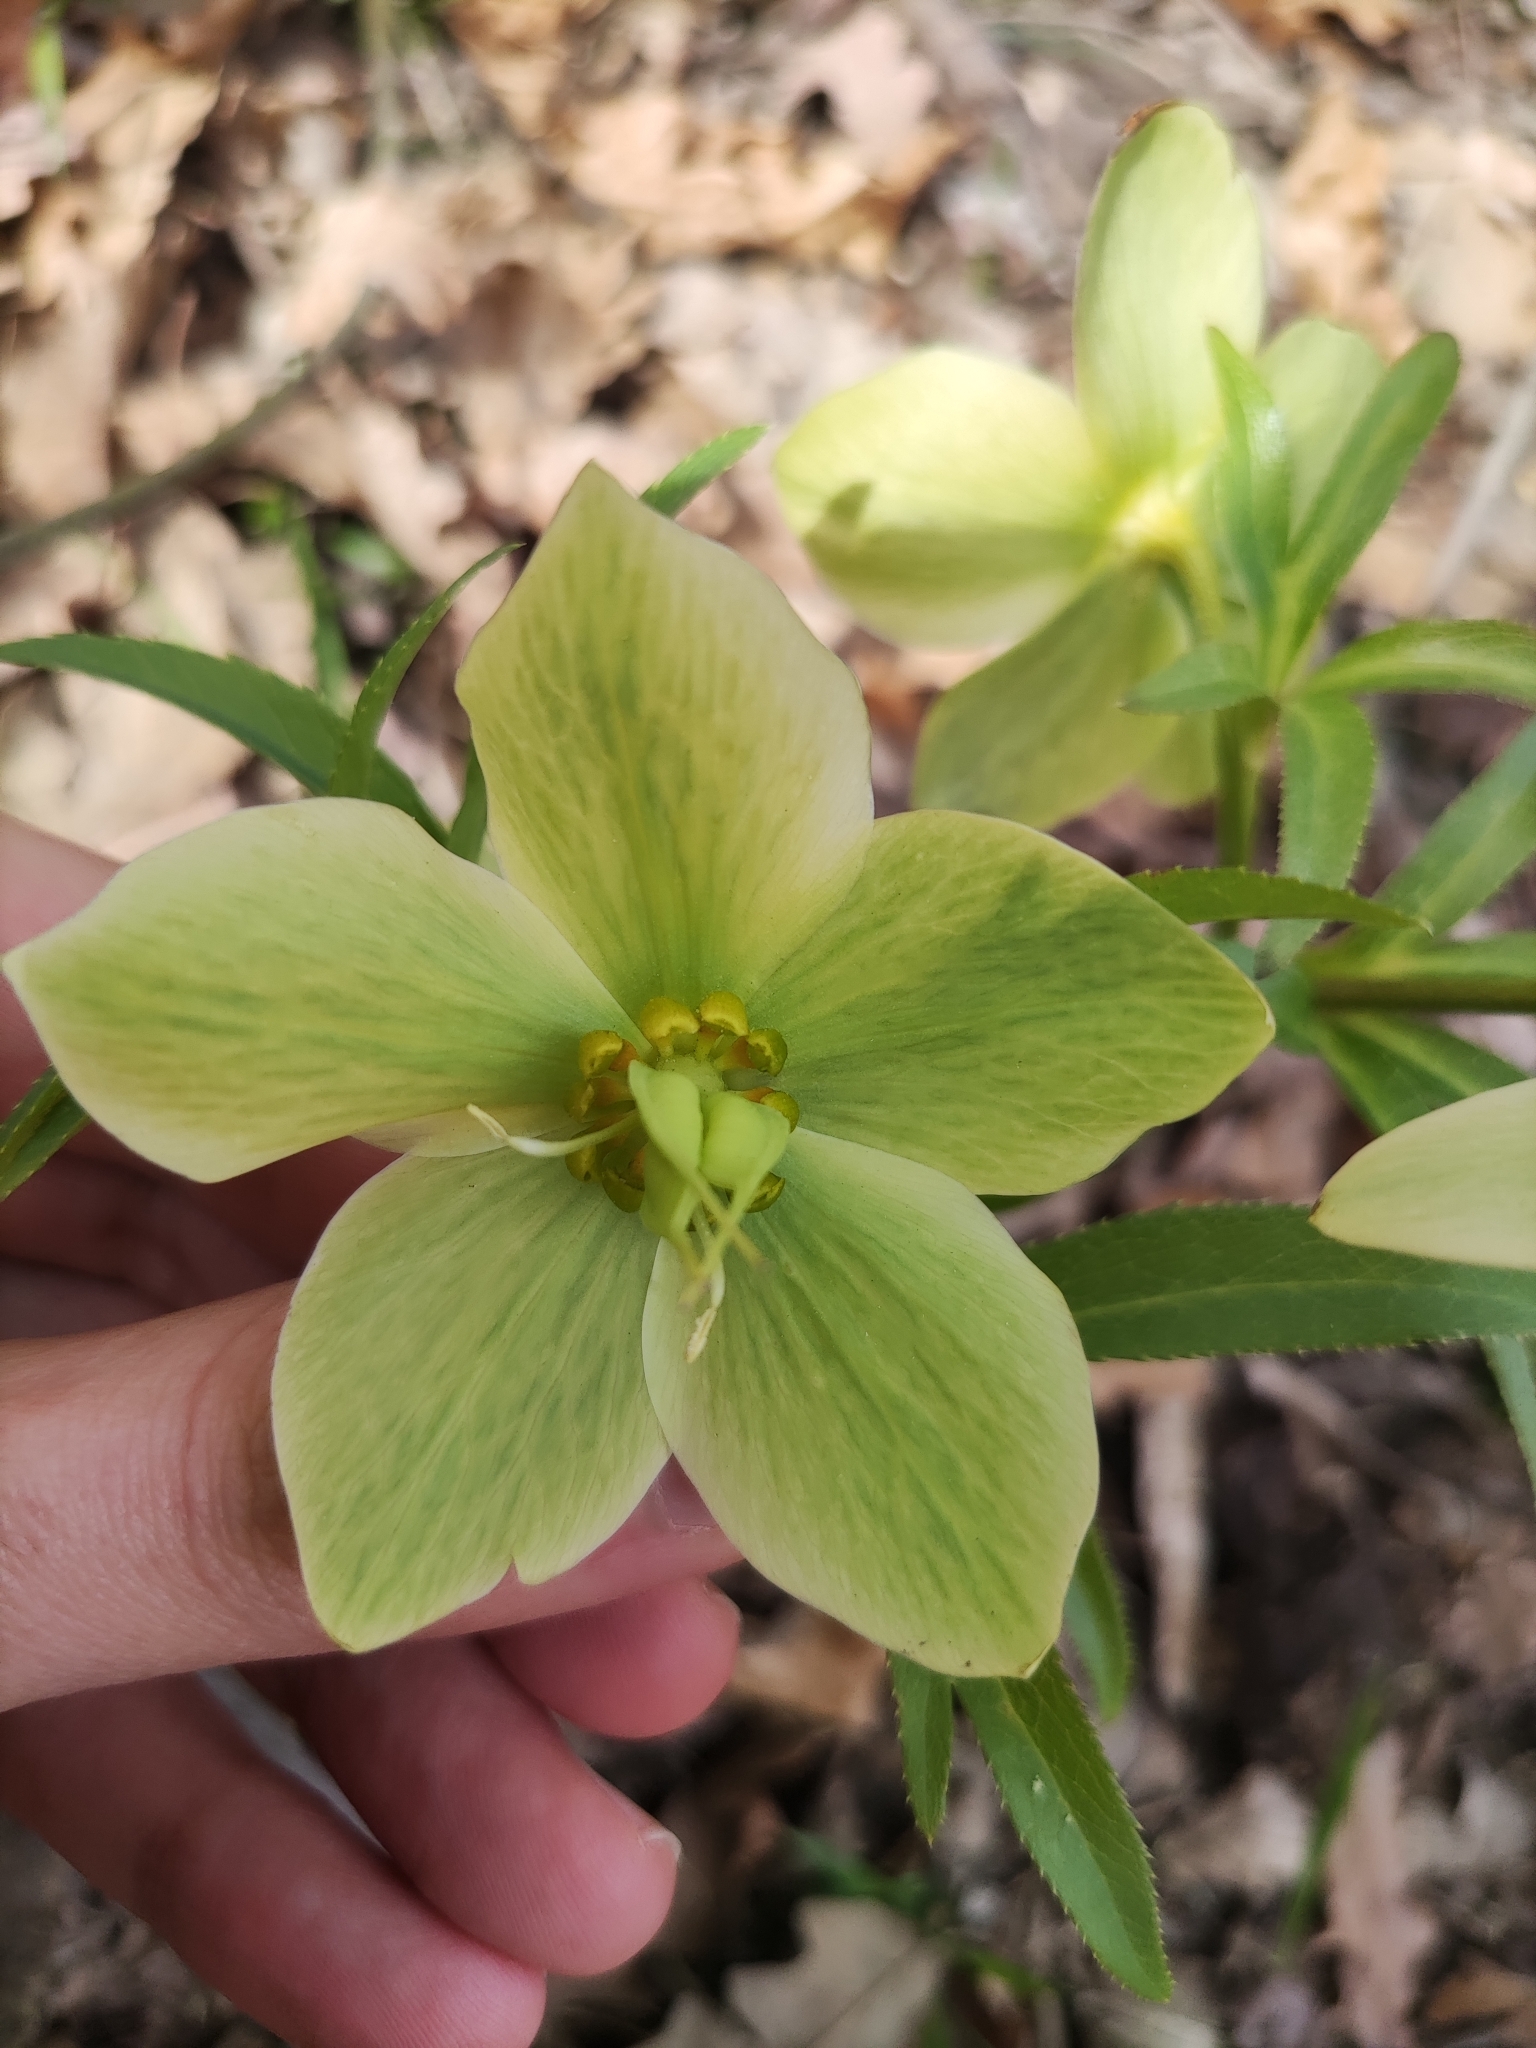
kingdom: Plantae
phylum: Tracheophyta
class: Magnoliopsida
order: Ranunculales
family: Ranunculaceae
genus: Helleborus
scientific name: Helleborus viridis
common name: Green hellebore
